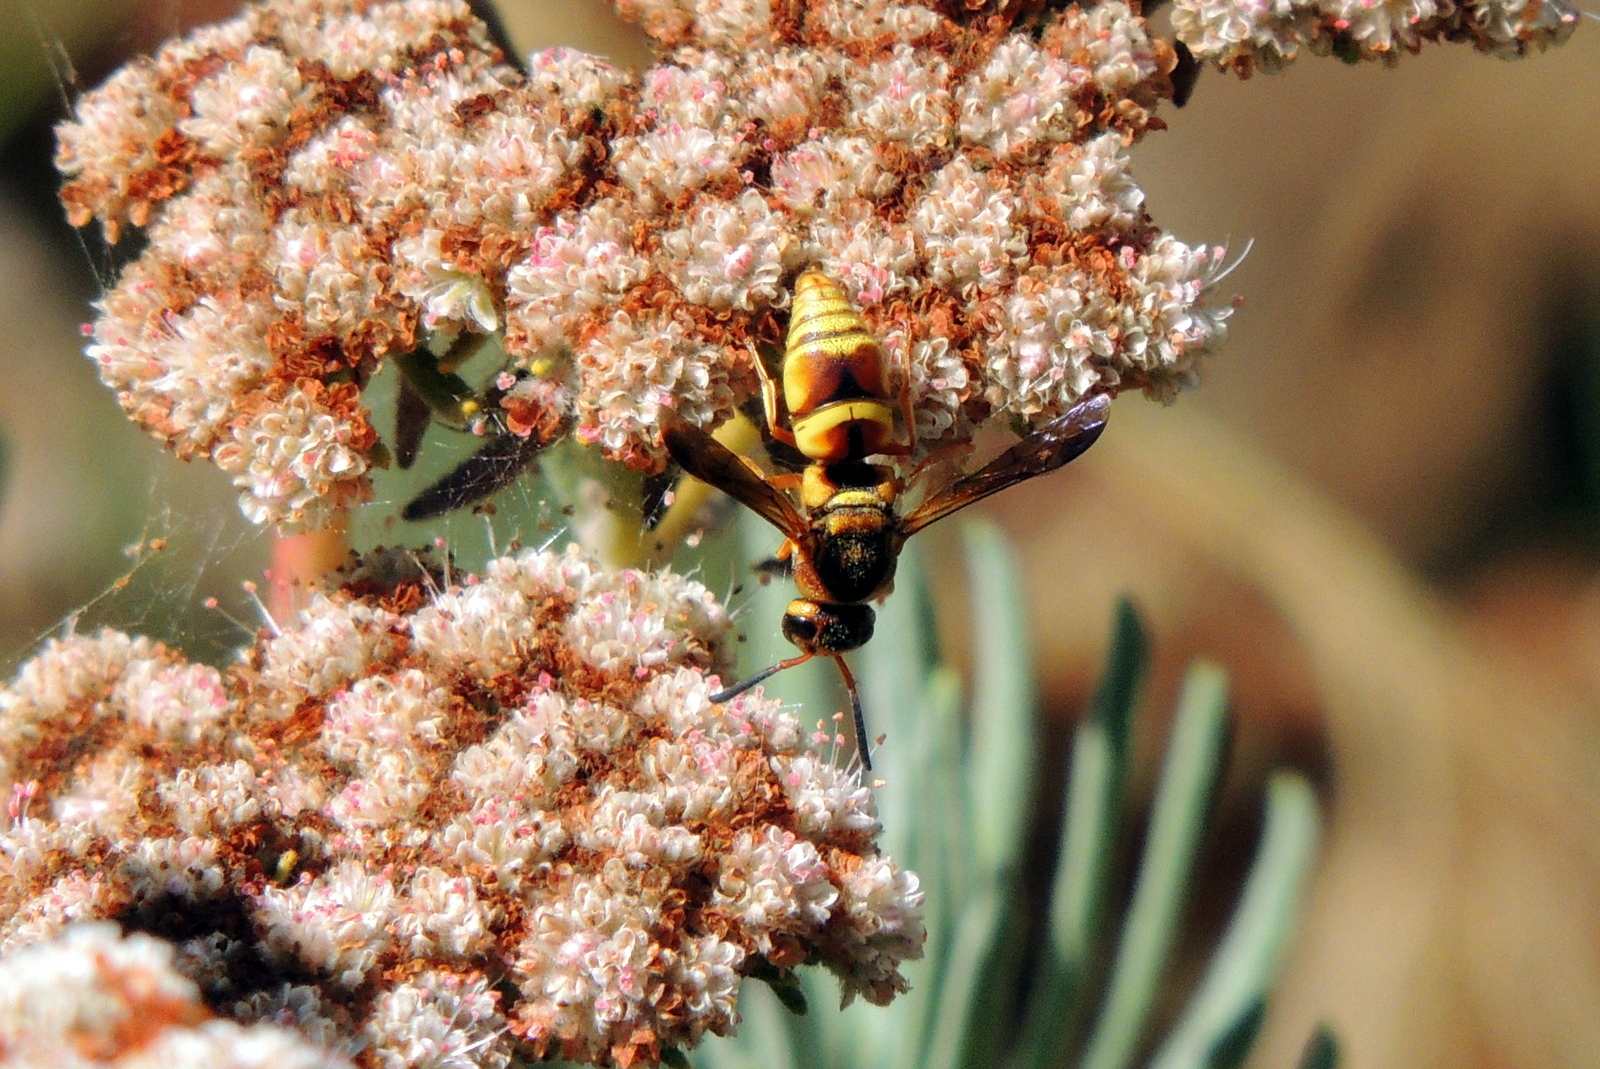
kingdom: Animalia
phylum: Arthropoda
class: Insecta
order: Hymenoptera
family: Eumenidae
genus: Euodynerus
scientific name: Euodynerus hidalgo
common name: Wasp
